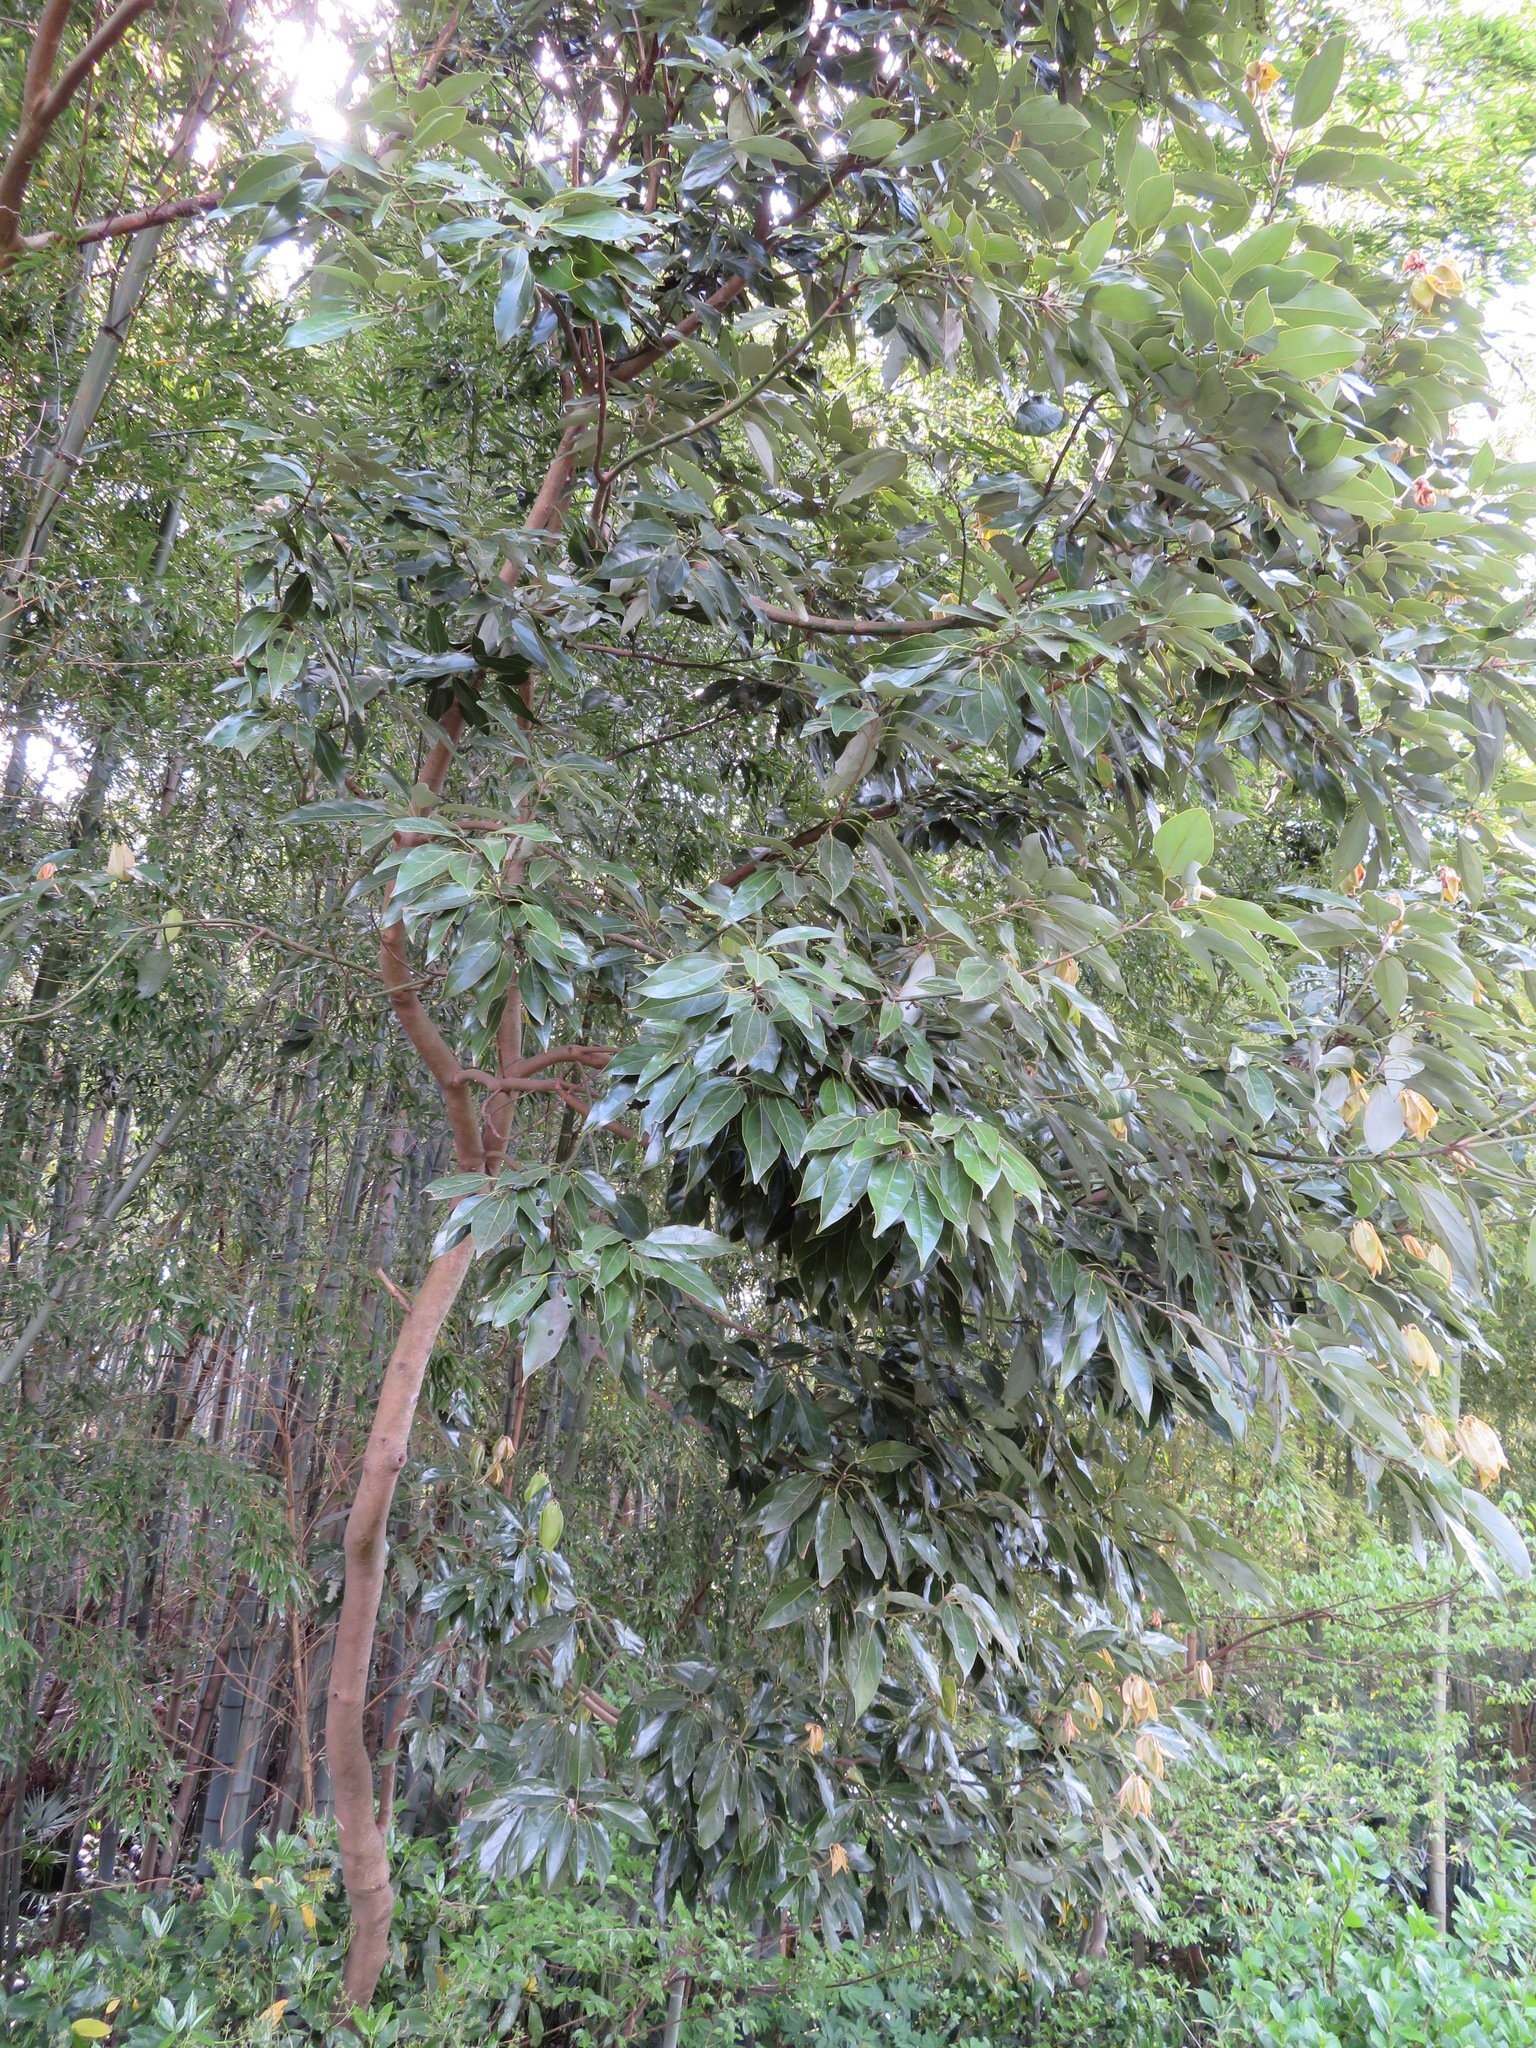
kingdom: Plantae
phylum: Tracheophyta
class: Magnoliopsida
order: Laurales
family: Lauraceae
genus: Neolitsea
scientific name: Neolitsea sericea
